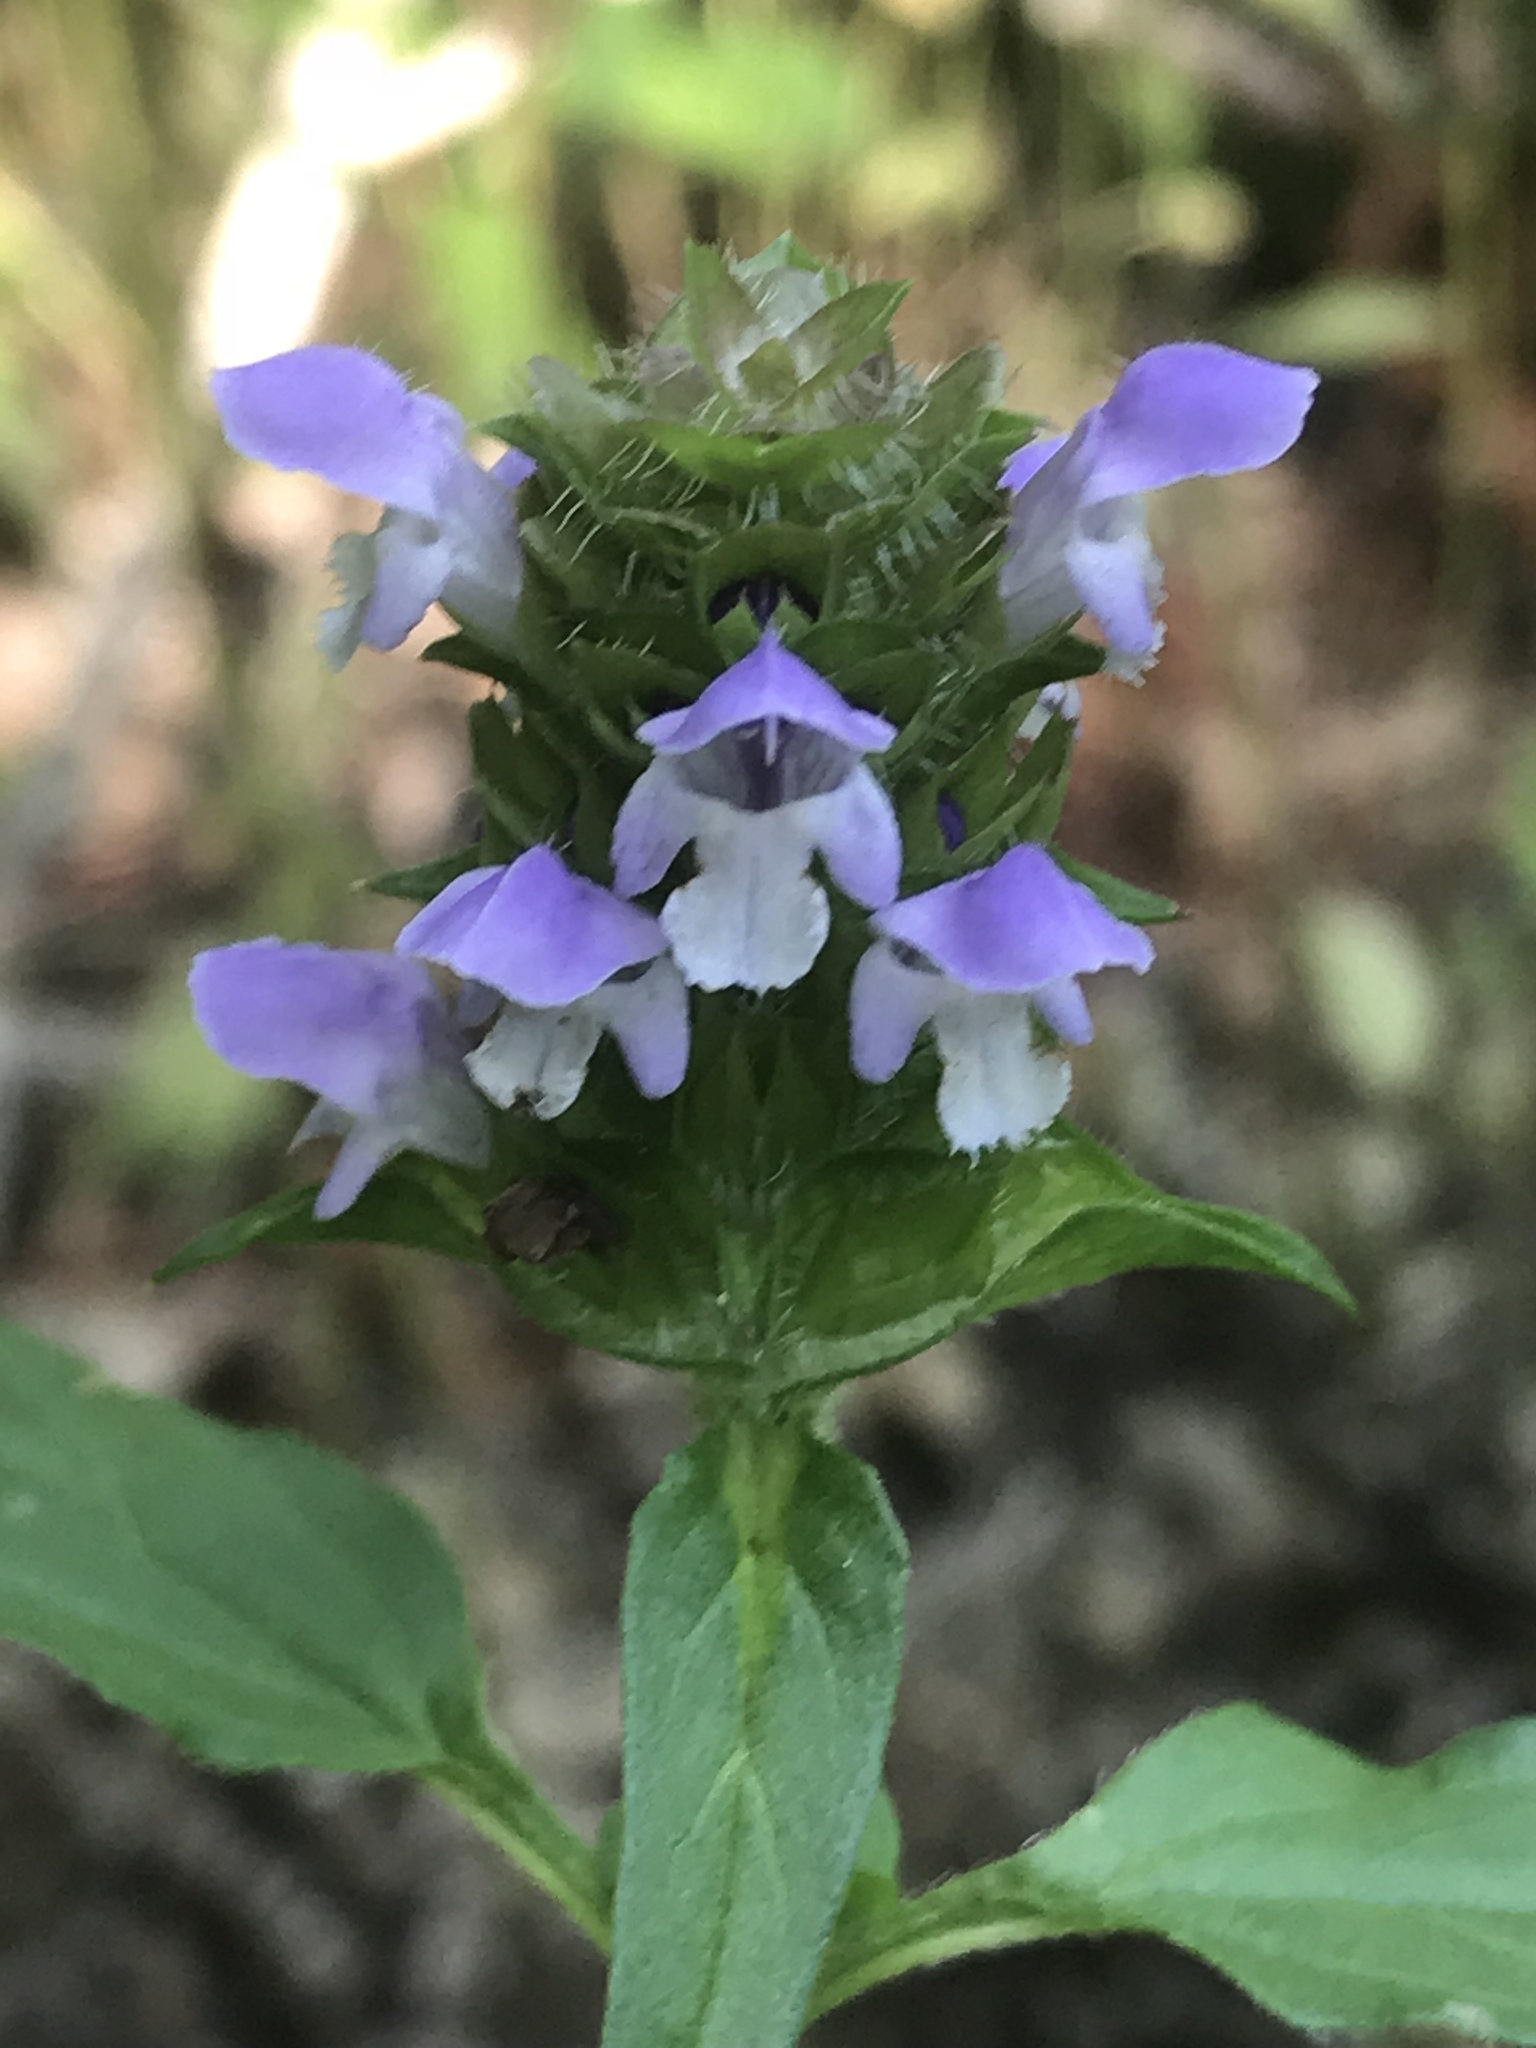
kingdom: Plantae
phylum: Tracheophyta
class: Magnoliopsida
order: Lamiales
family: Lamiaceae
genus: Prunella
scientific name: Prunella vulgaris
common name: Heal-all
